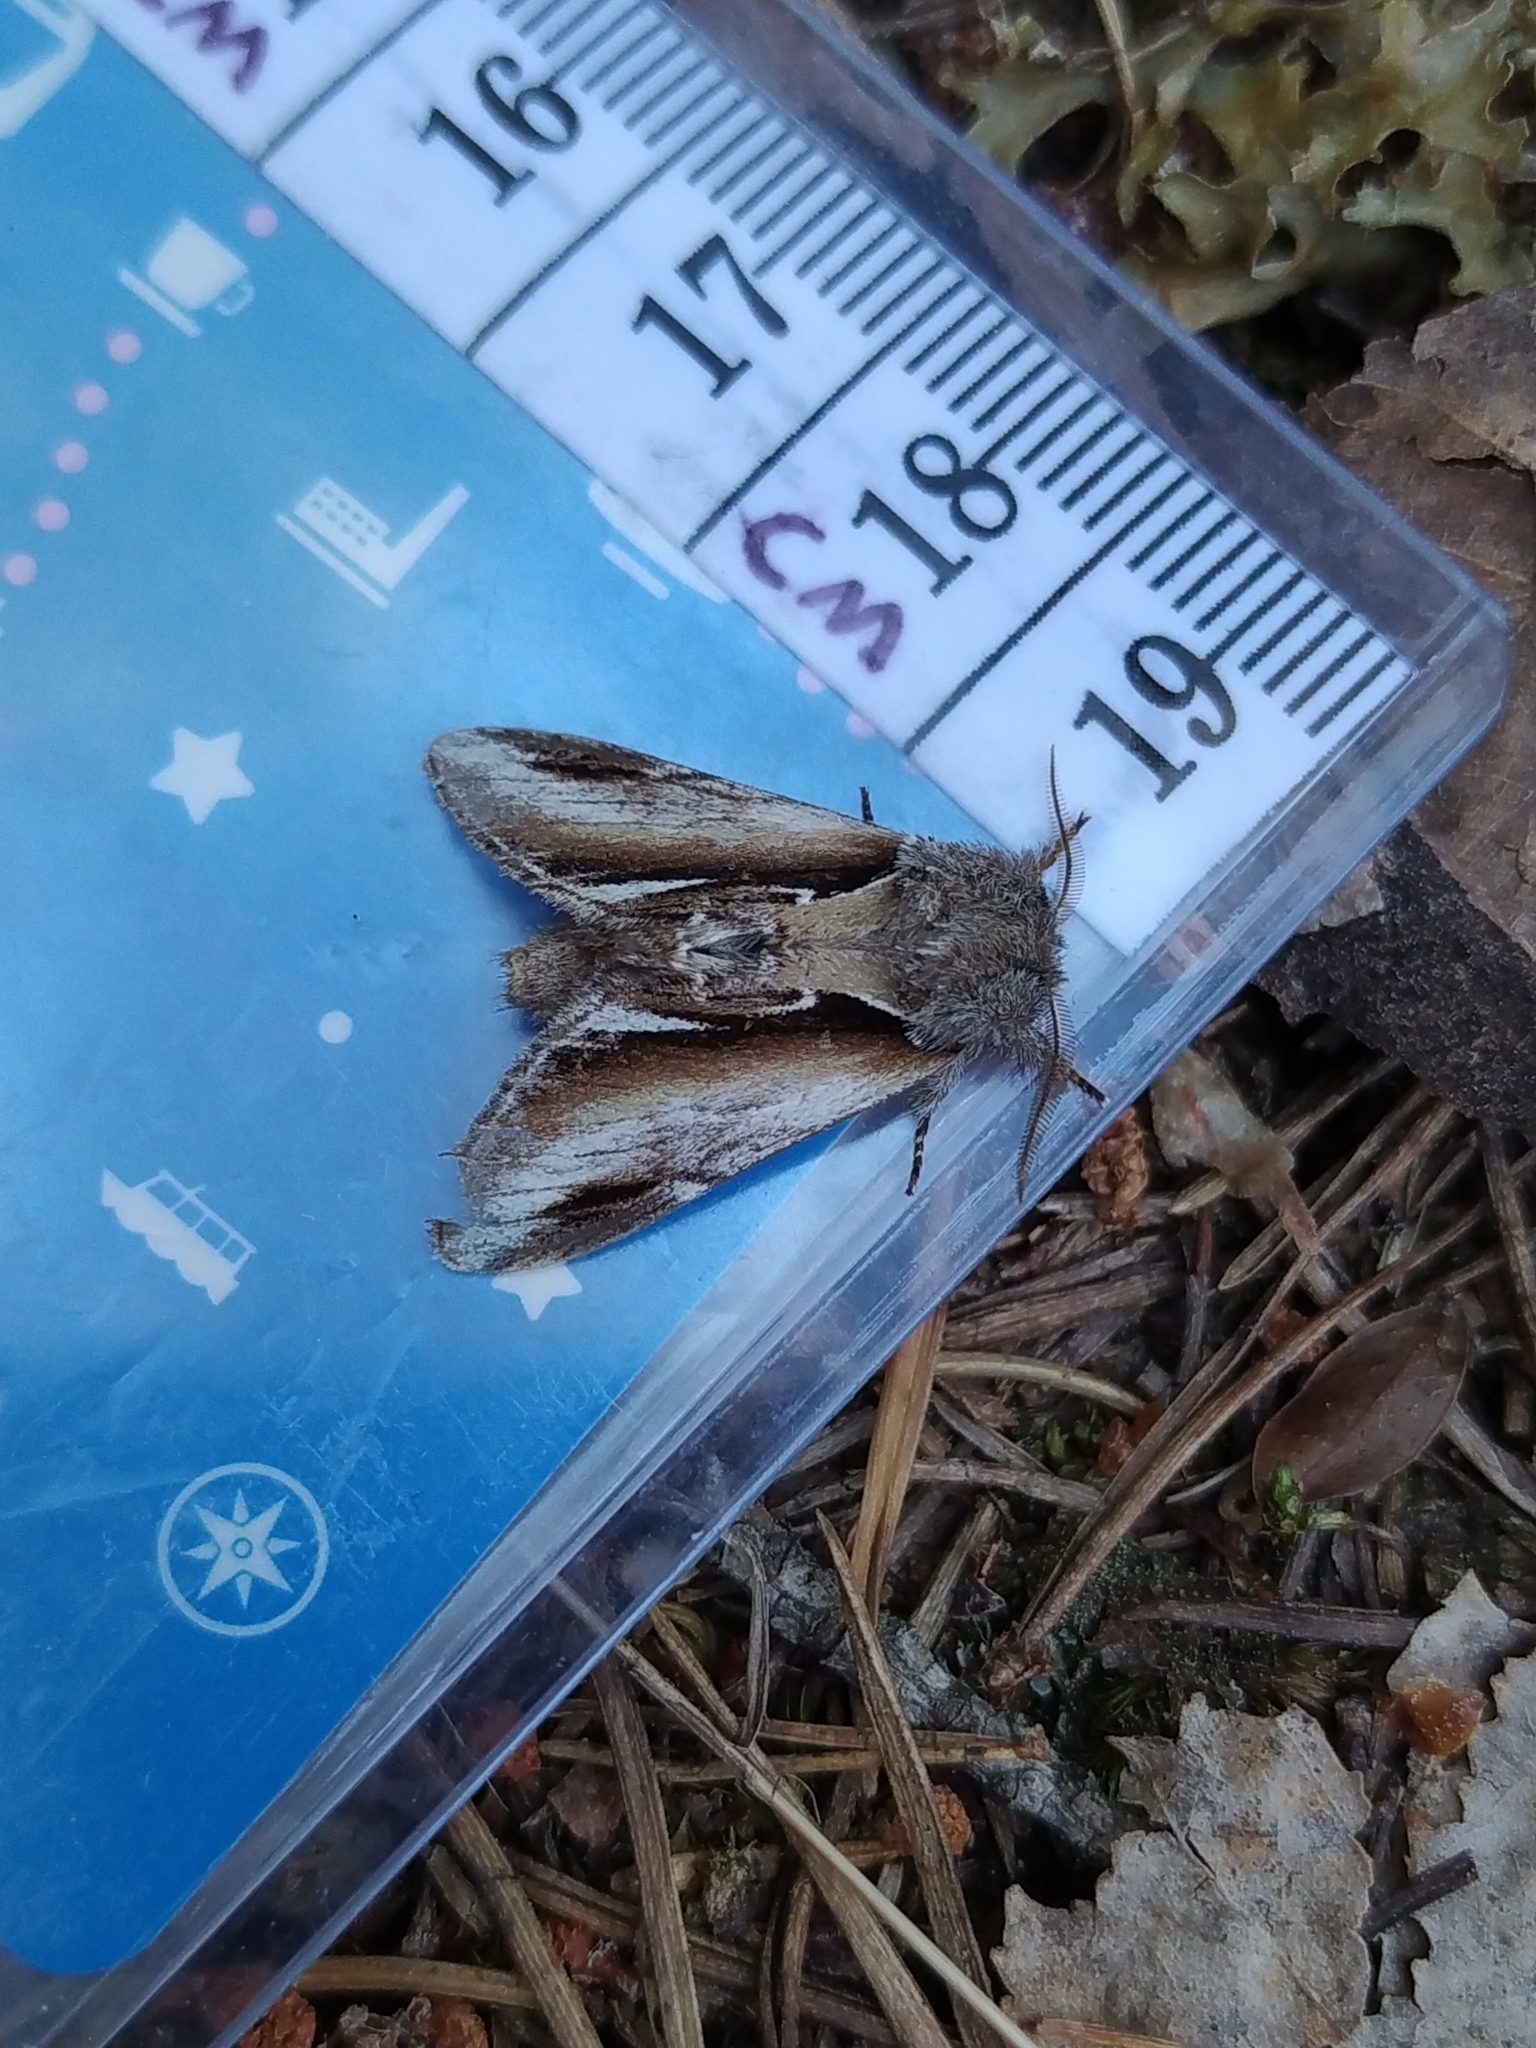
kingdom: Animalia
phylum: Arthropoda
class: Insecta
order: Lepidoptera
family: Notodontidae
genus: Pheosia
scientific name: Pheosia gnoma
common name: Lesser swallow prominent
